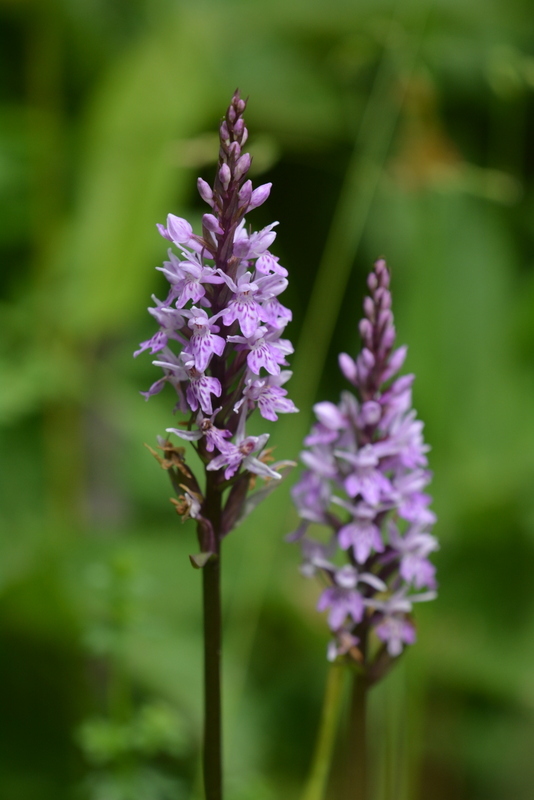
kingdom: Plantae
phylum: Tracheophyta
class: Liliopsida
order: Asparagales
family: Orchidaceae
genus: Dactylorhiza
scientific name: Dactylorhiza maculata
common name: Heath spotted-orchid
